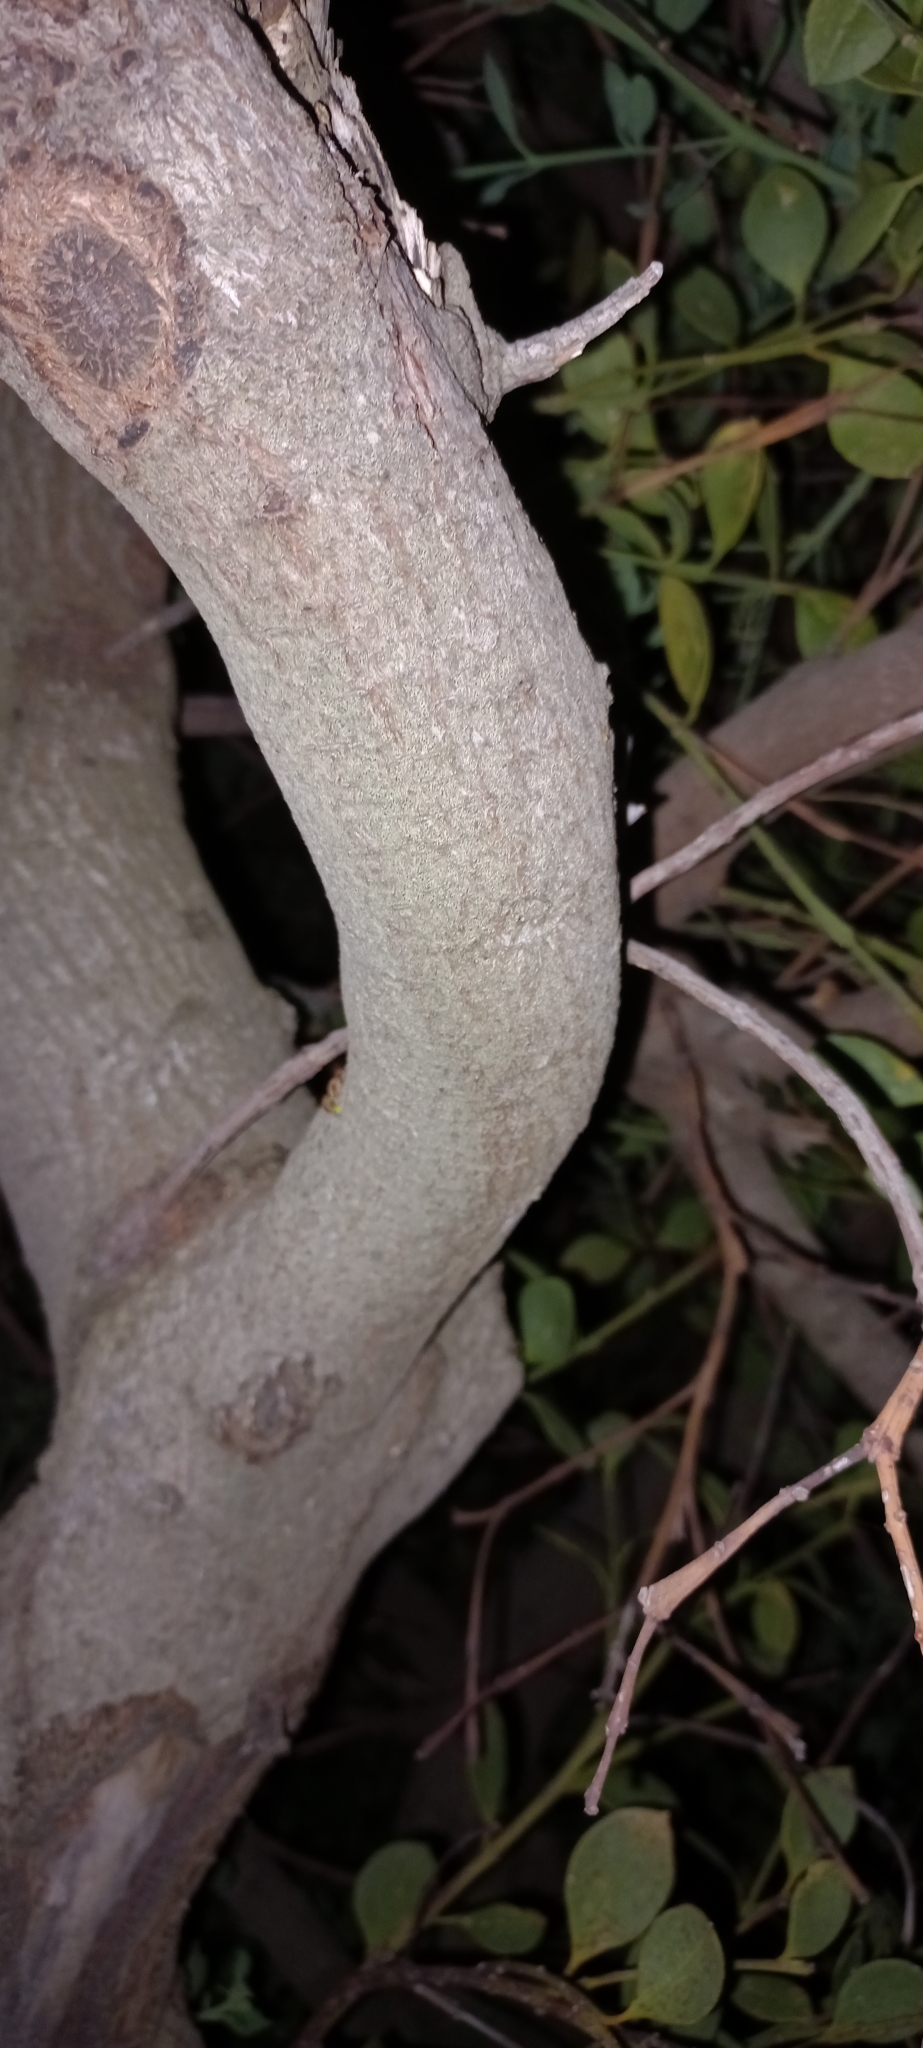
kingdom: Plantae
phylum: Tracheophyta
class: Magnoliopsida
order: Santalales
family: Santalaceae
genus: Osyris
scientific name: Osyris compressa
